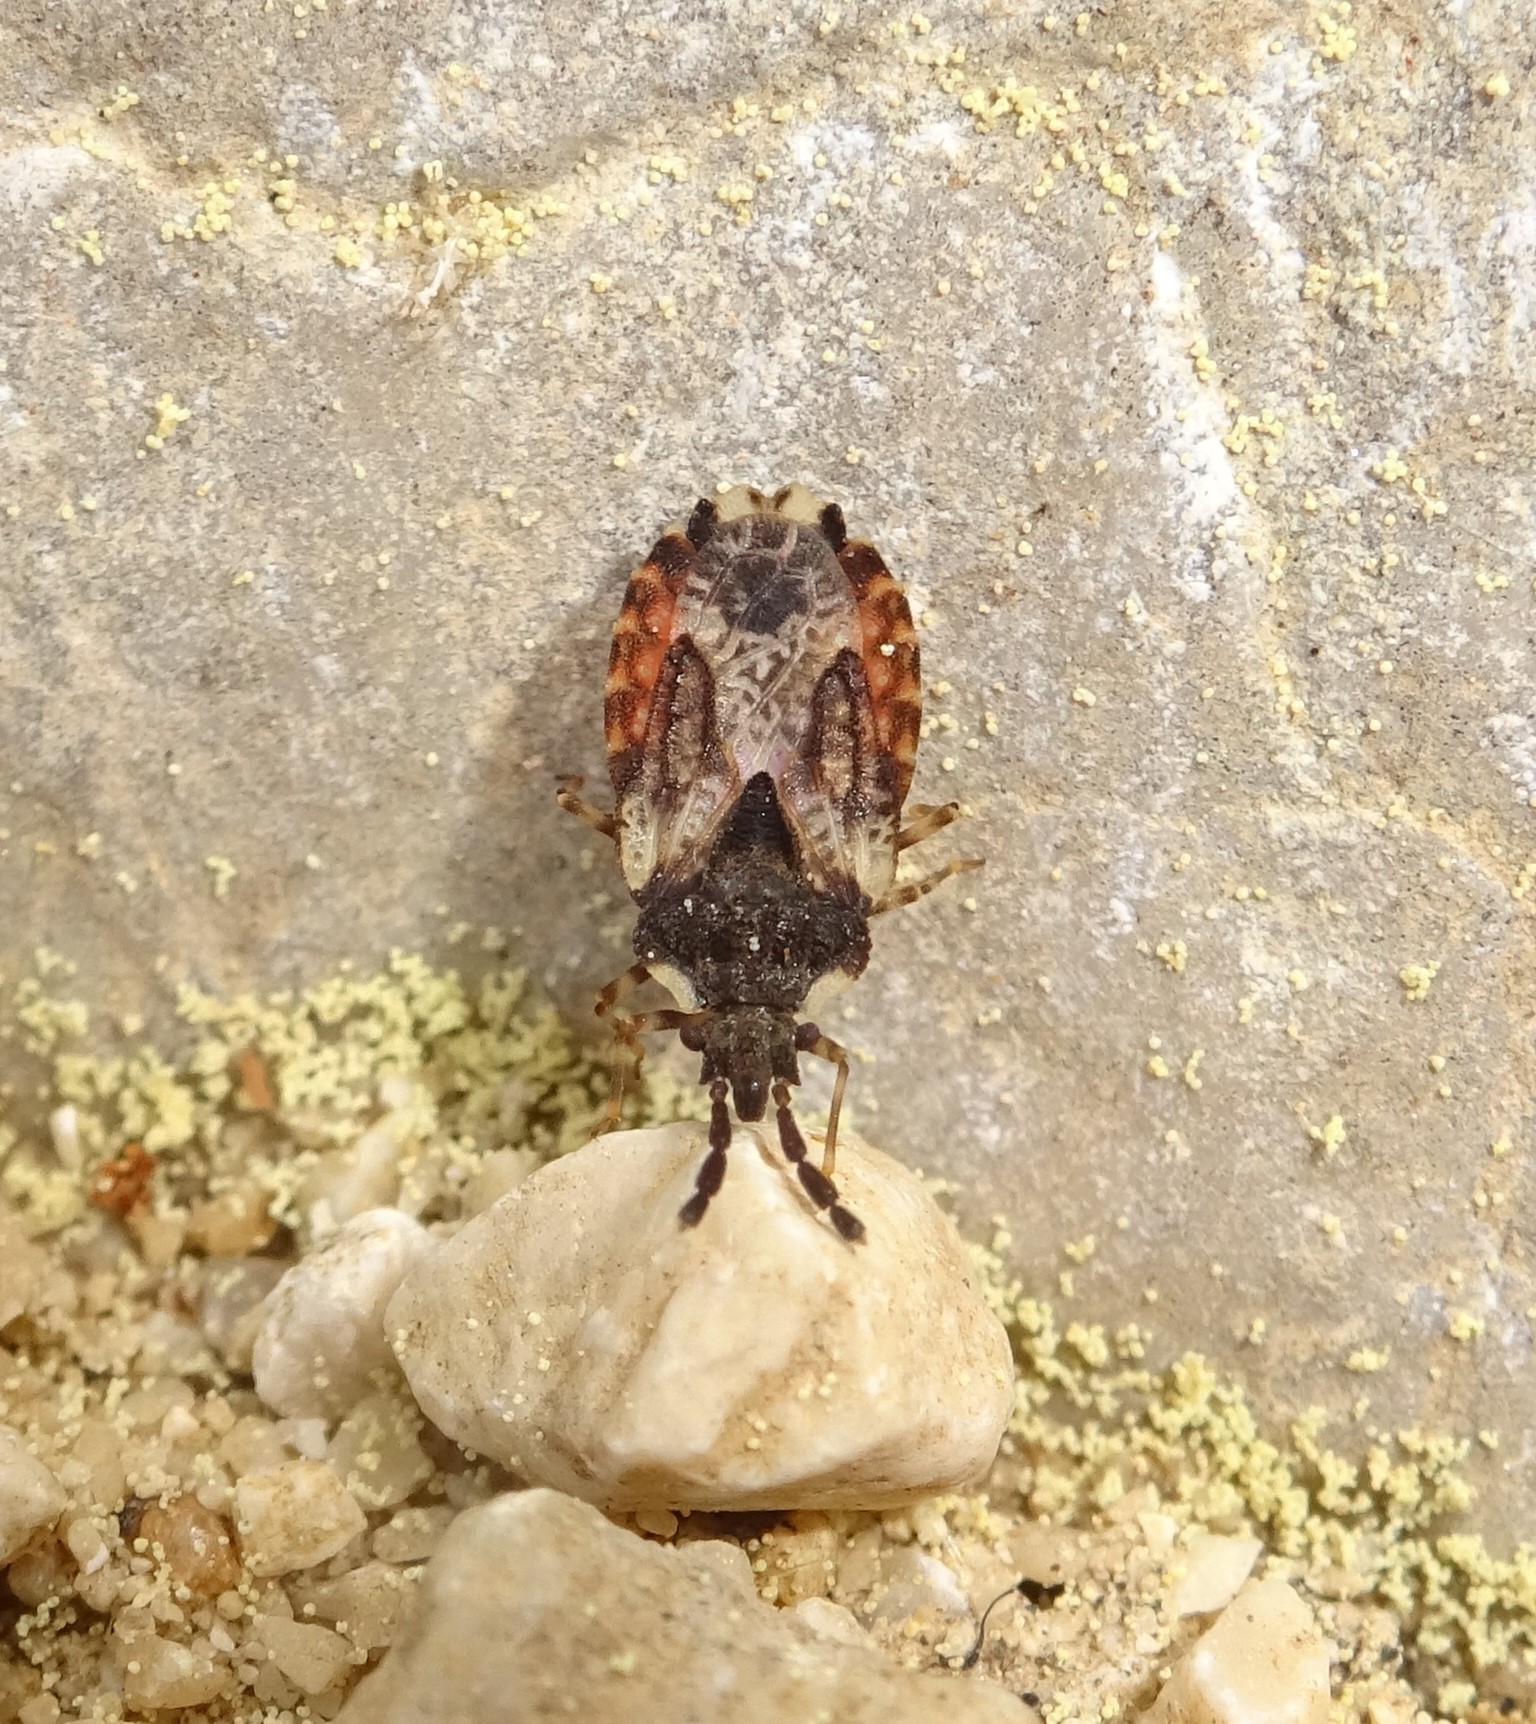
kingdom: Animalia
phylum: Arthropoda
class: Insecta
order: Hemiptera
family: Aradidae
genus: Aradus
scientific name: Aradus depressus
